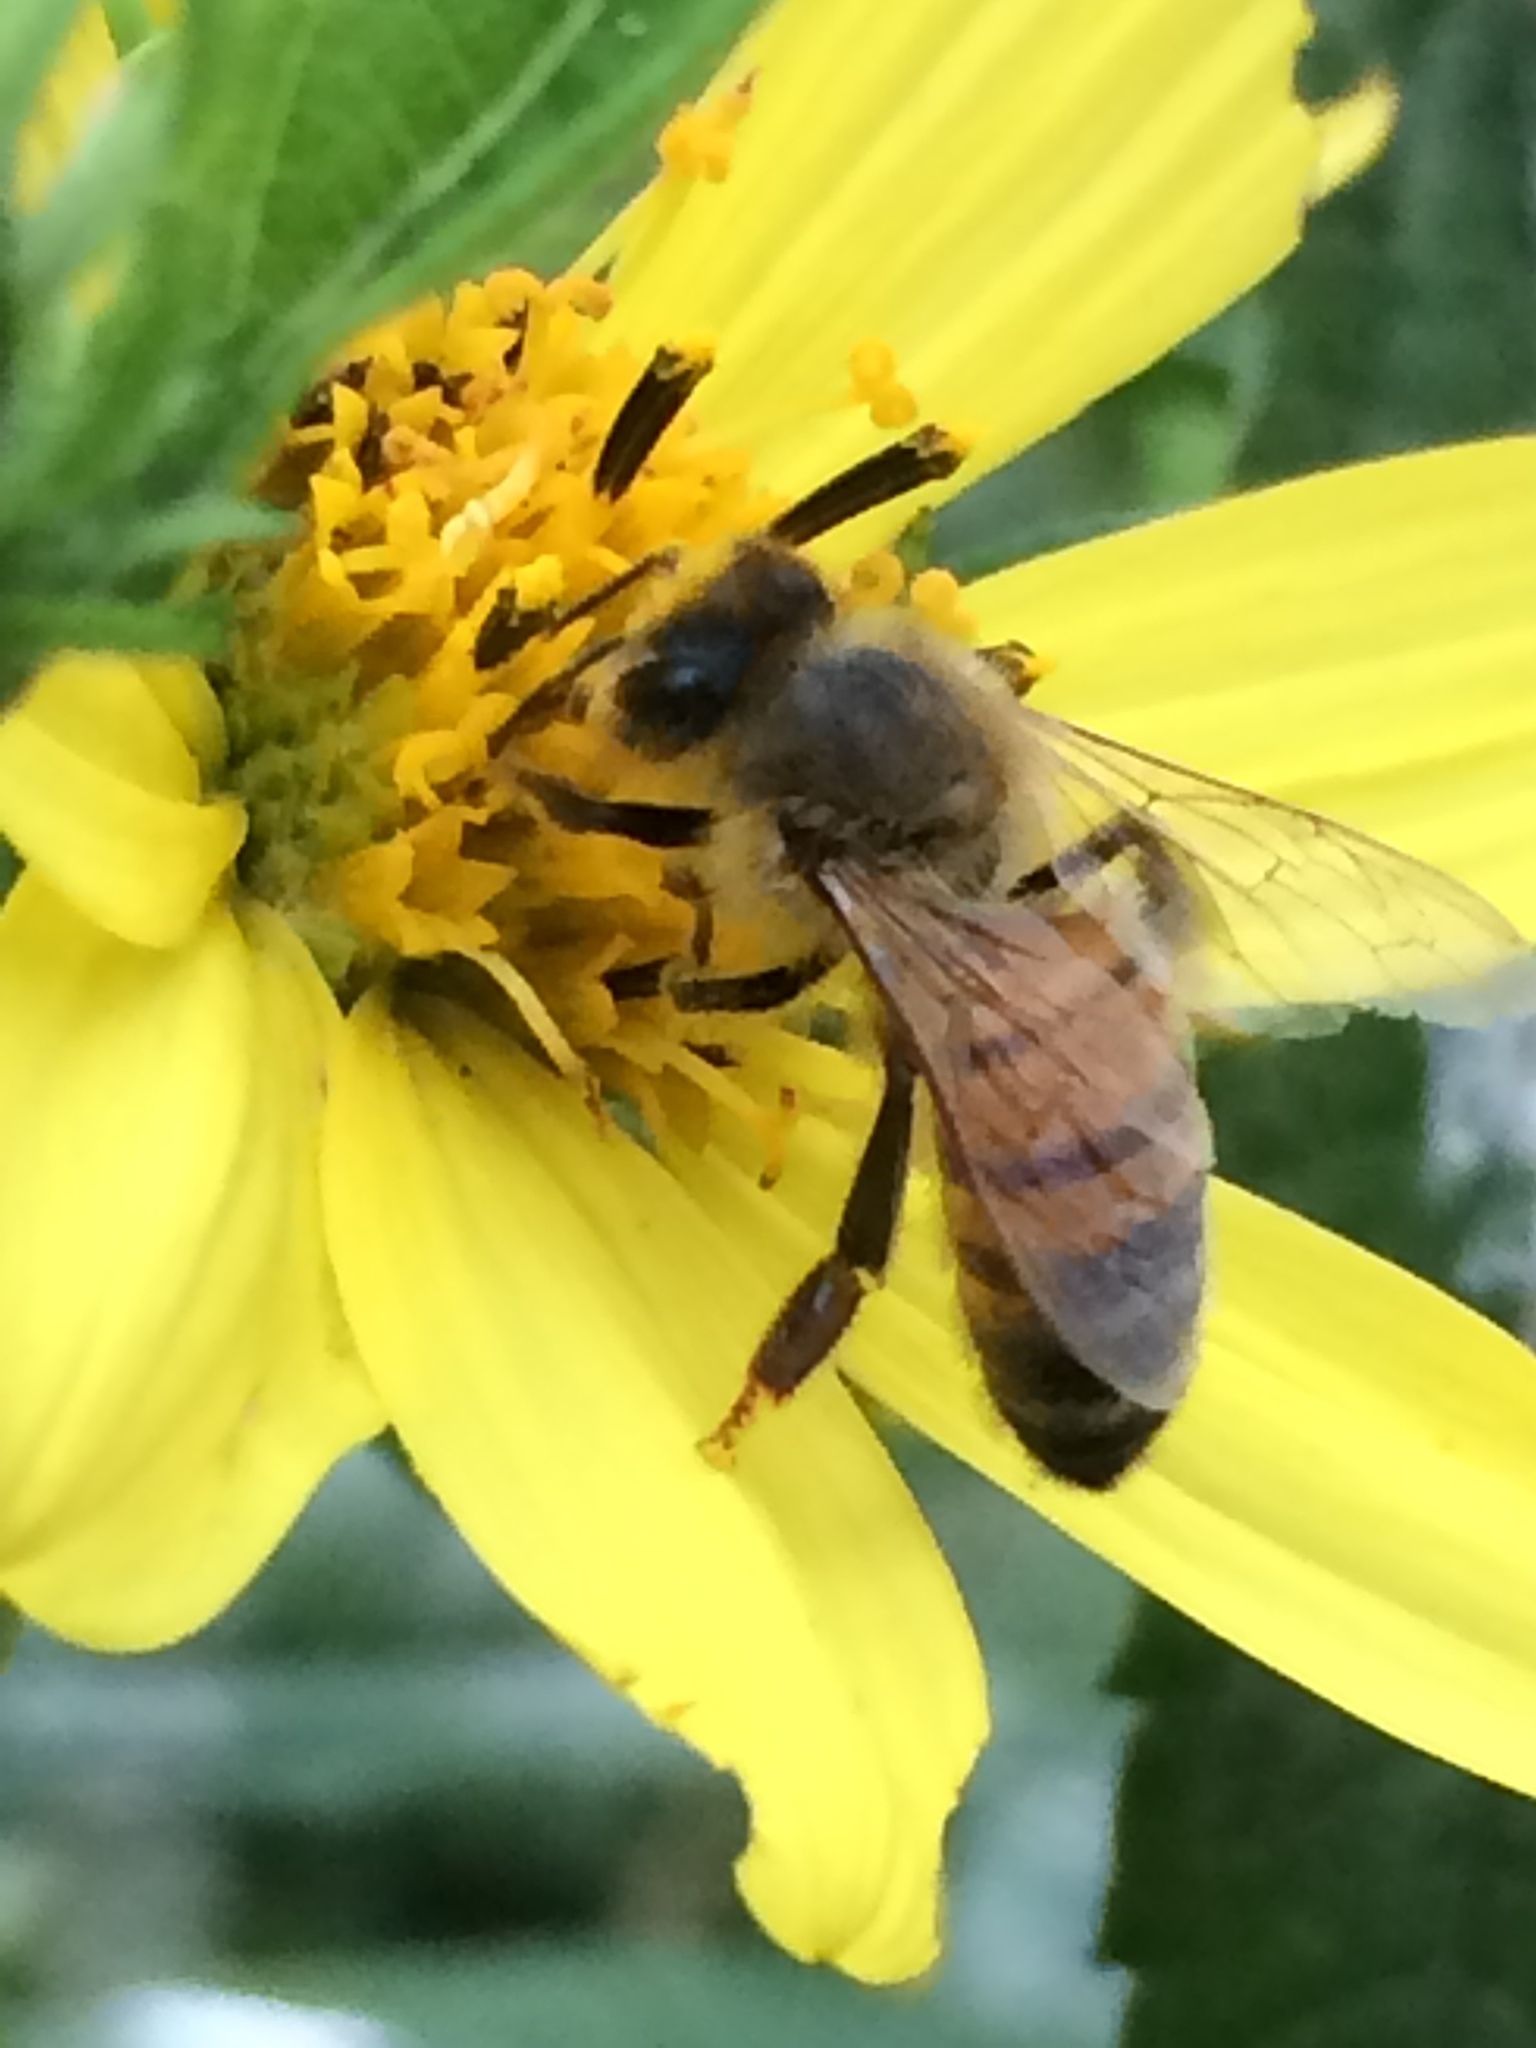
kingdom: Animalia
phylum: Arthropoda
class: Insecta
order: Hymenoptera
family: Apidae
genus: Apis
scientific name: Apis mellifera
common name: Honey bee
